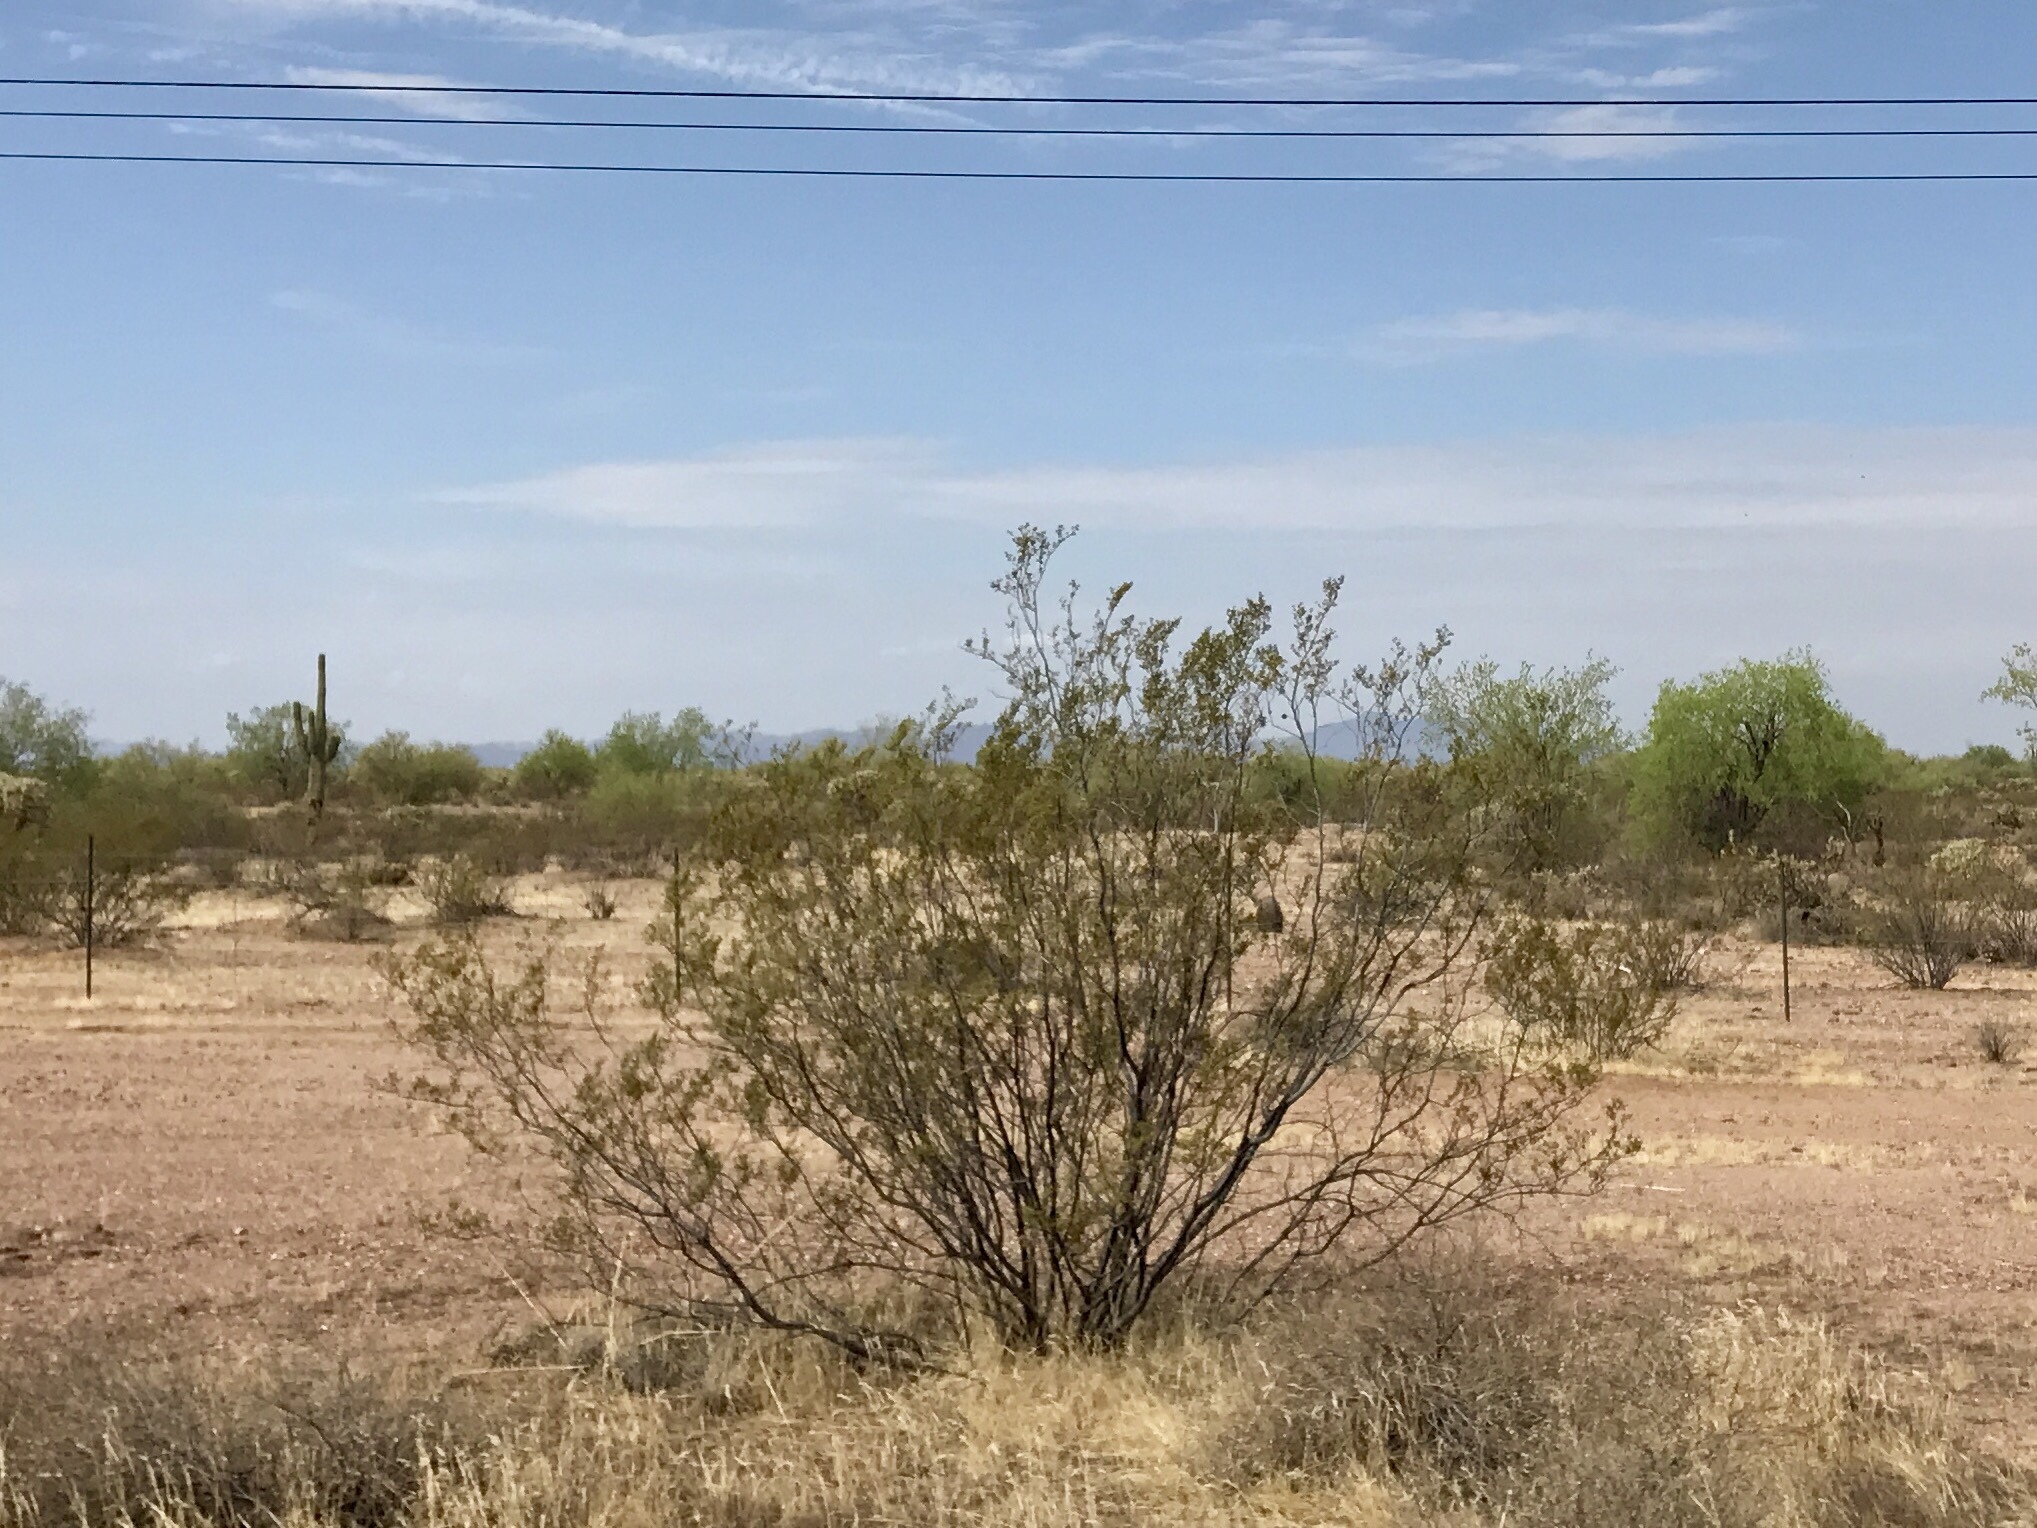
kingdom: Plantae
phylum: Tracheophyta
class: Magnoliopsida
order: Zygophyllales
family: Zygophyllaceae
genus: Larrea
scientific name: Larrea tridentata
